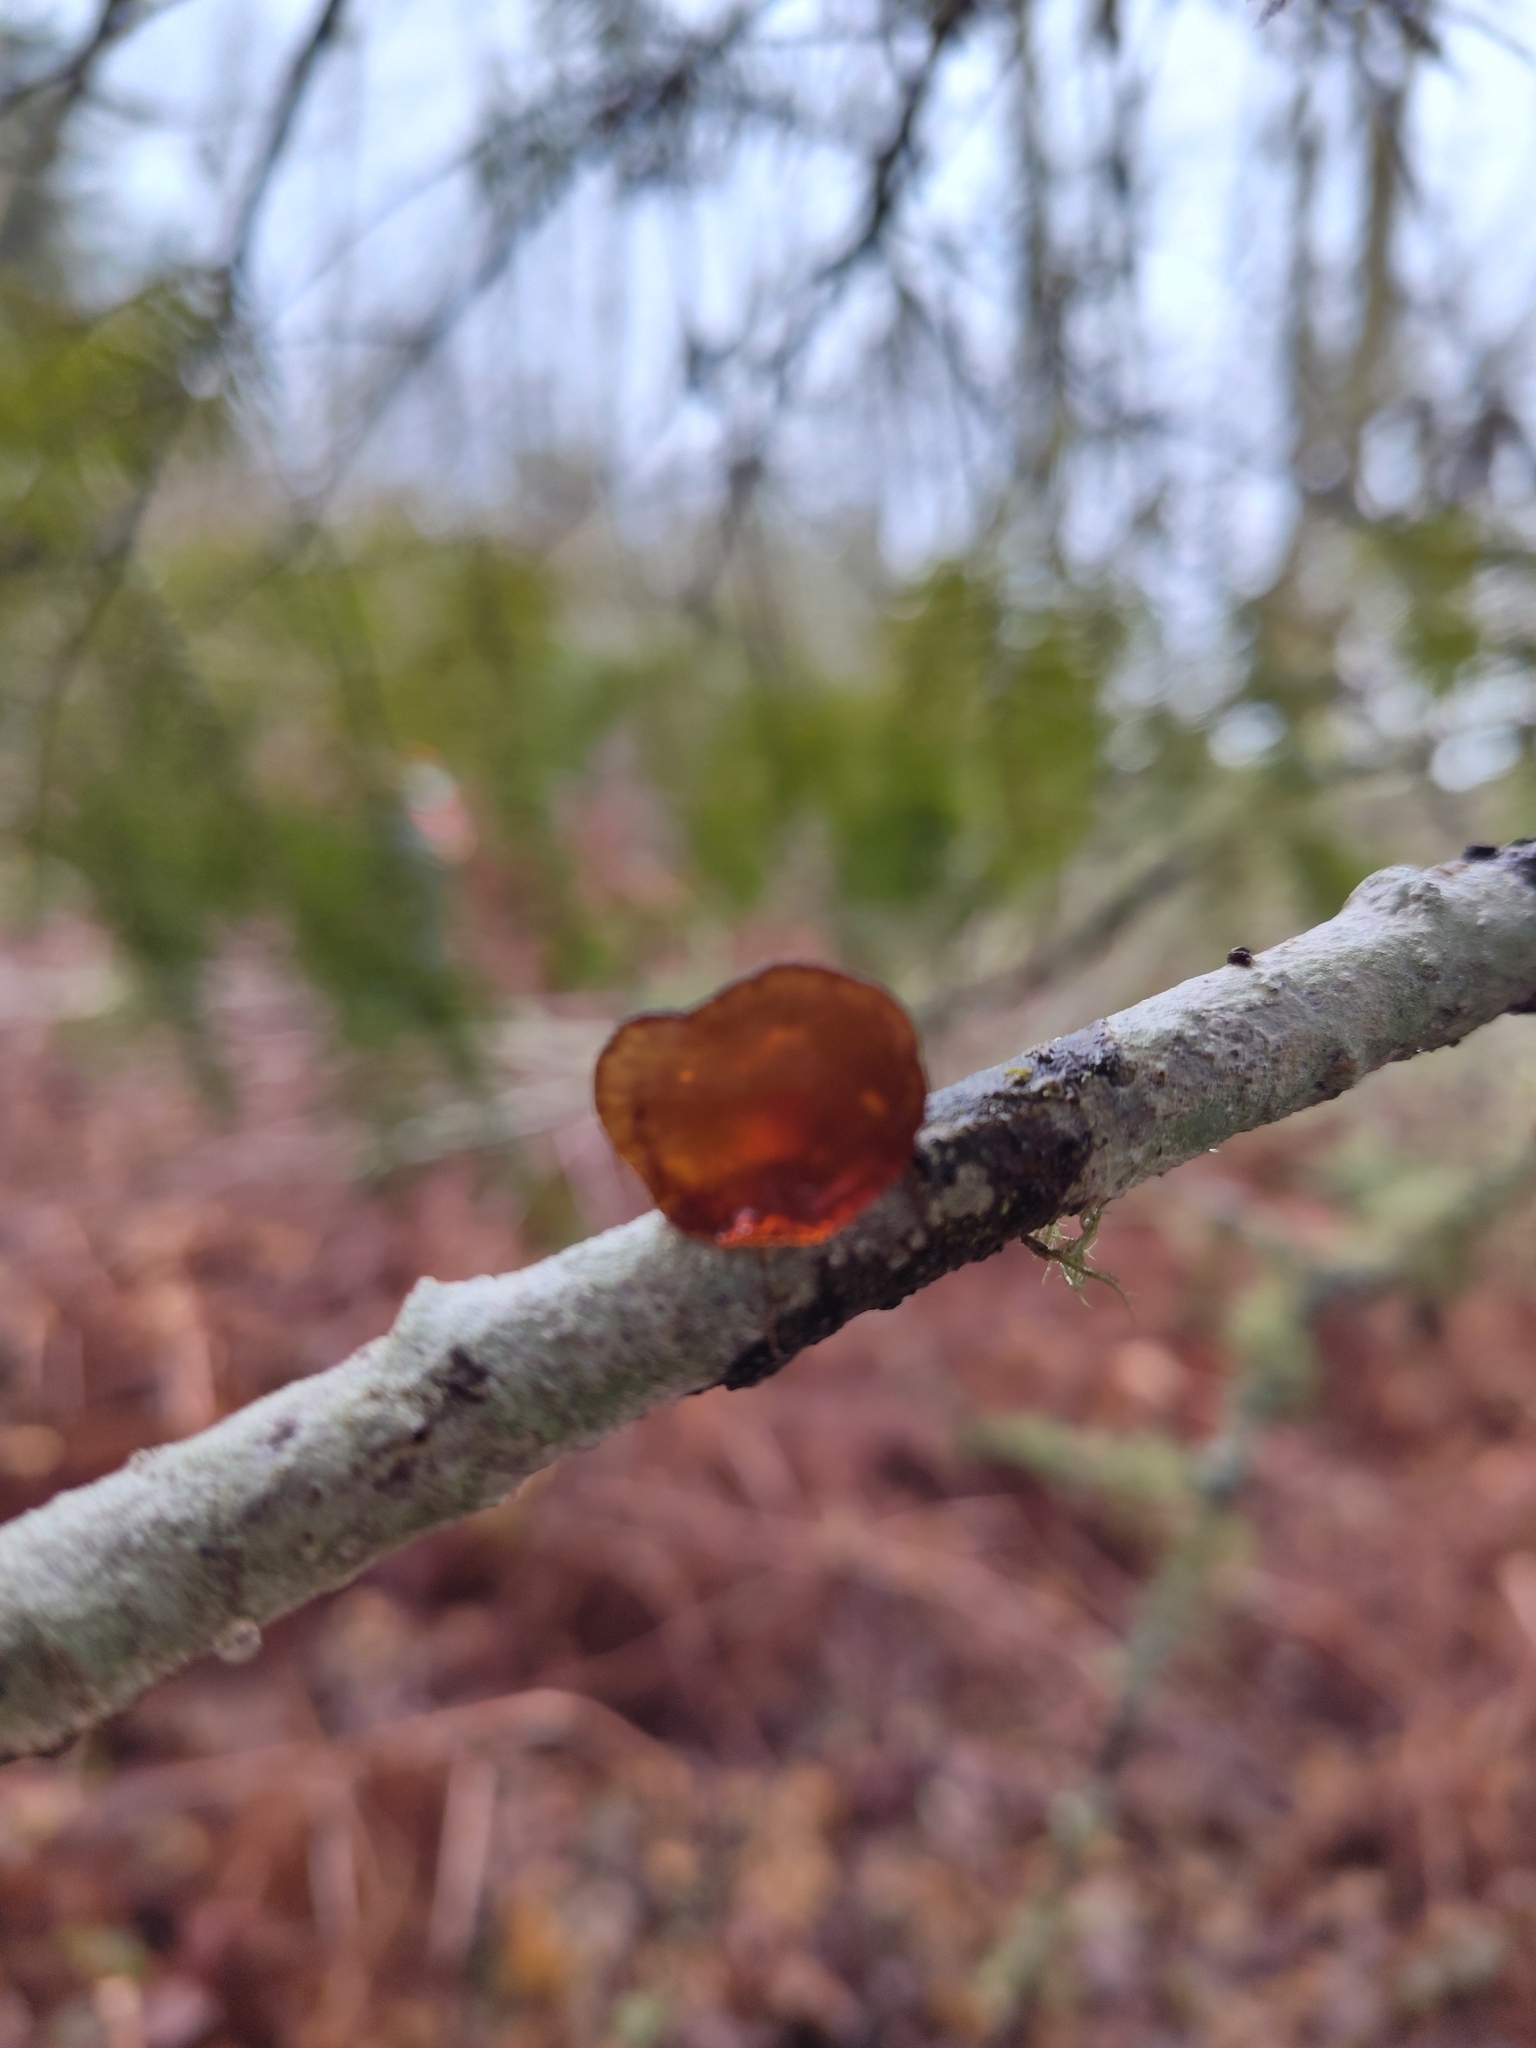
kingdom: Fungi
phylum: Basidiomycota
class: Agaricomycetes
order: Auriculariales
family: Auriculariaceae
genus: Exidia
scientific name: Exidia recisa
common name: Amber jelly
